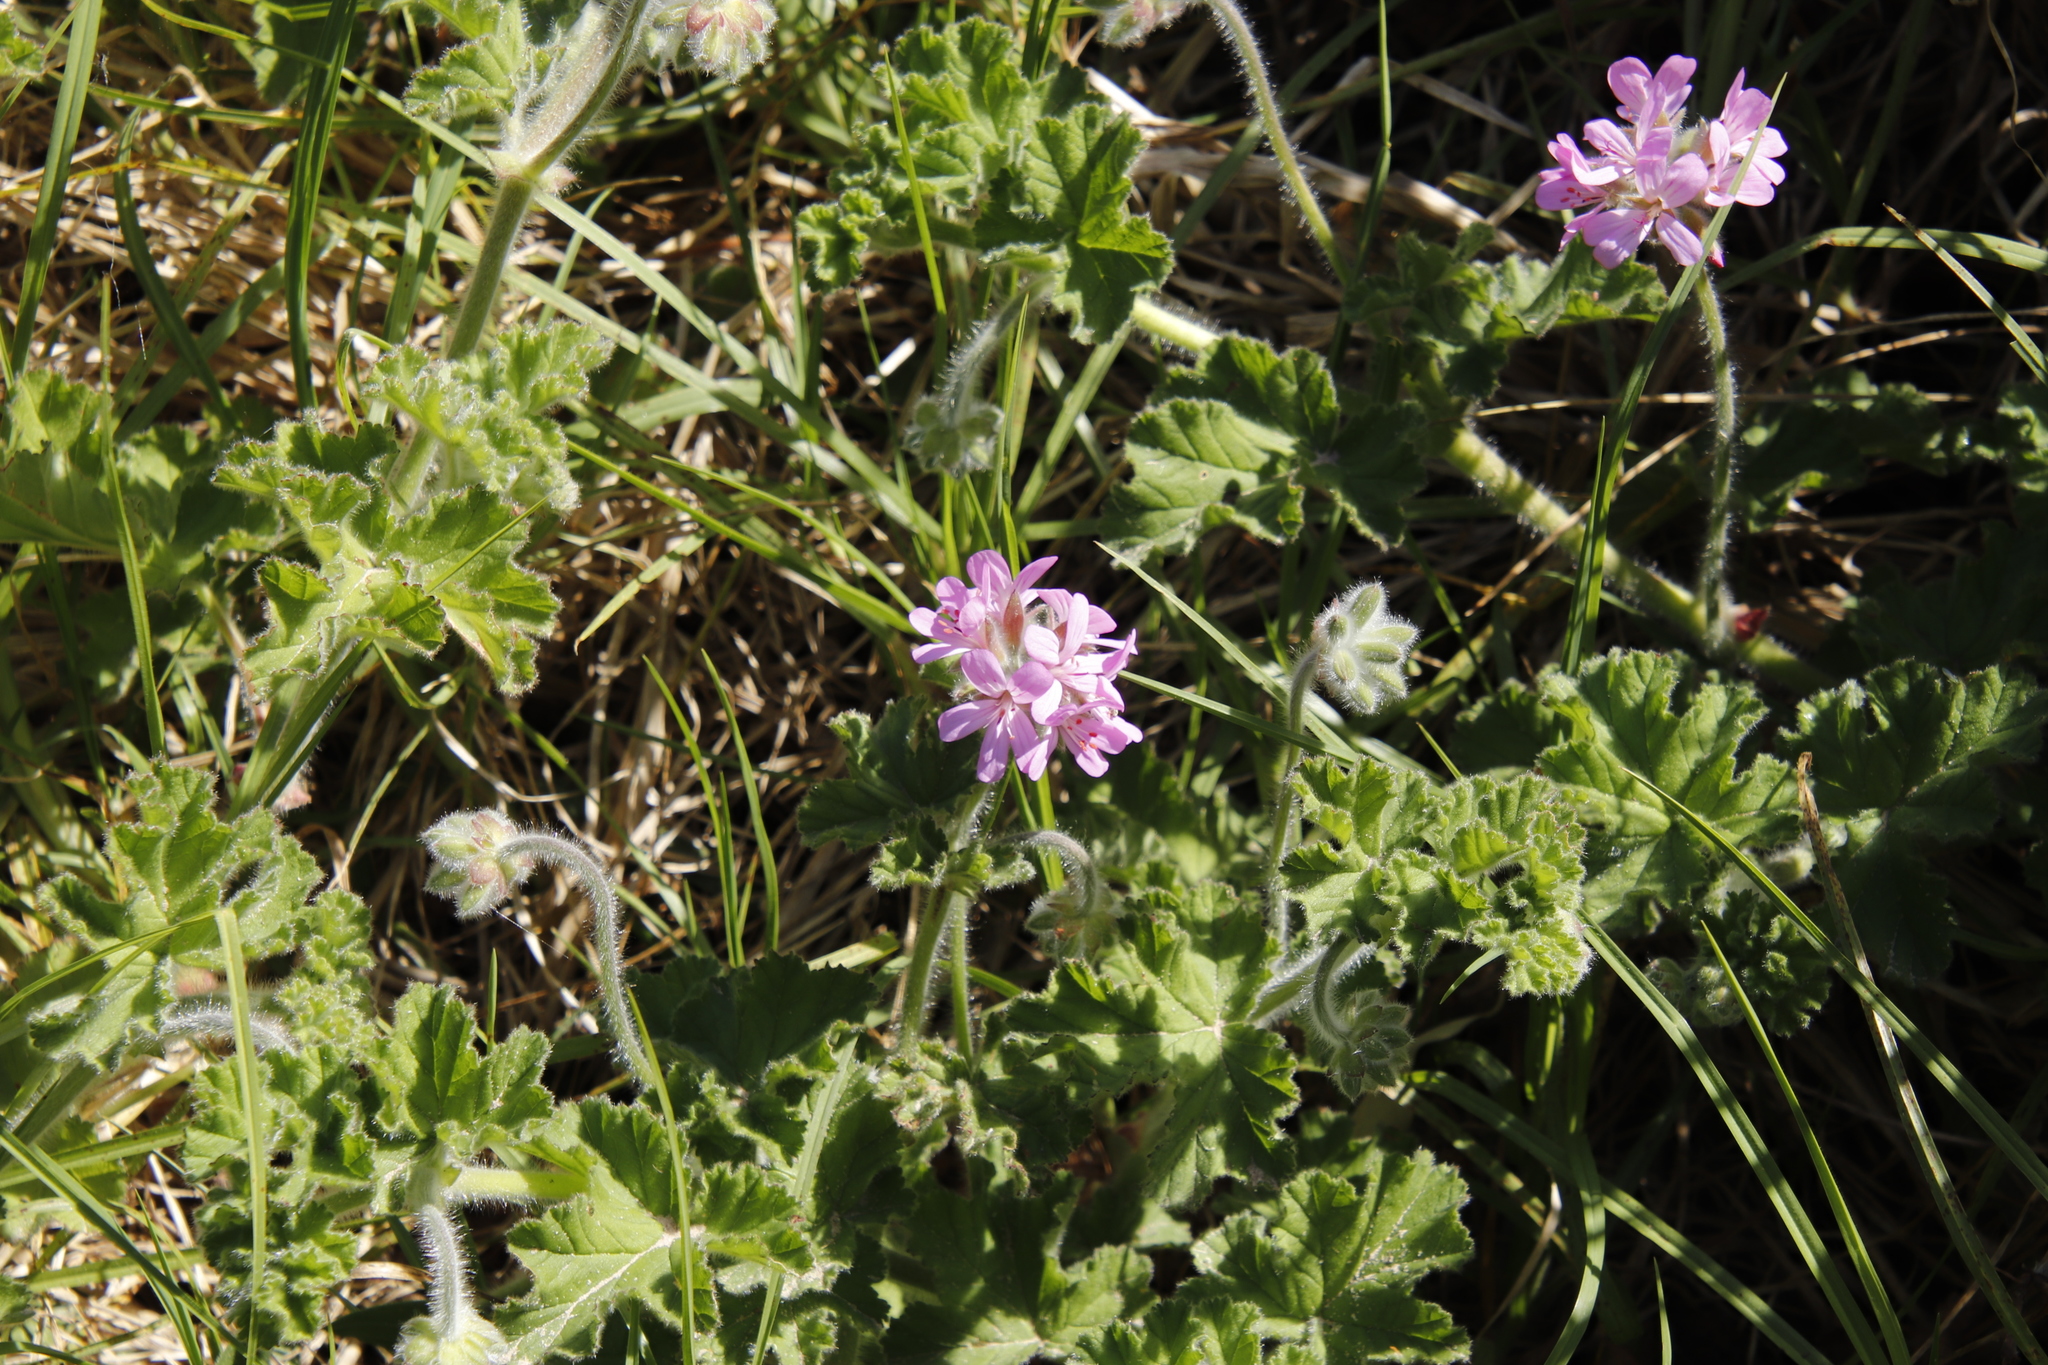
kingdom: Plantae
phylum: Tracheophyta
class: Magnoliopsida
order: Geraniales
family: Geraniaceae
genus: Pelargonium
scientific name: Pelargonium capitatum
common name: Rose scented geranium
